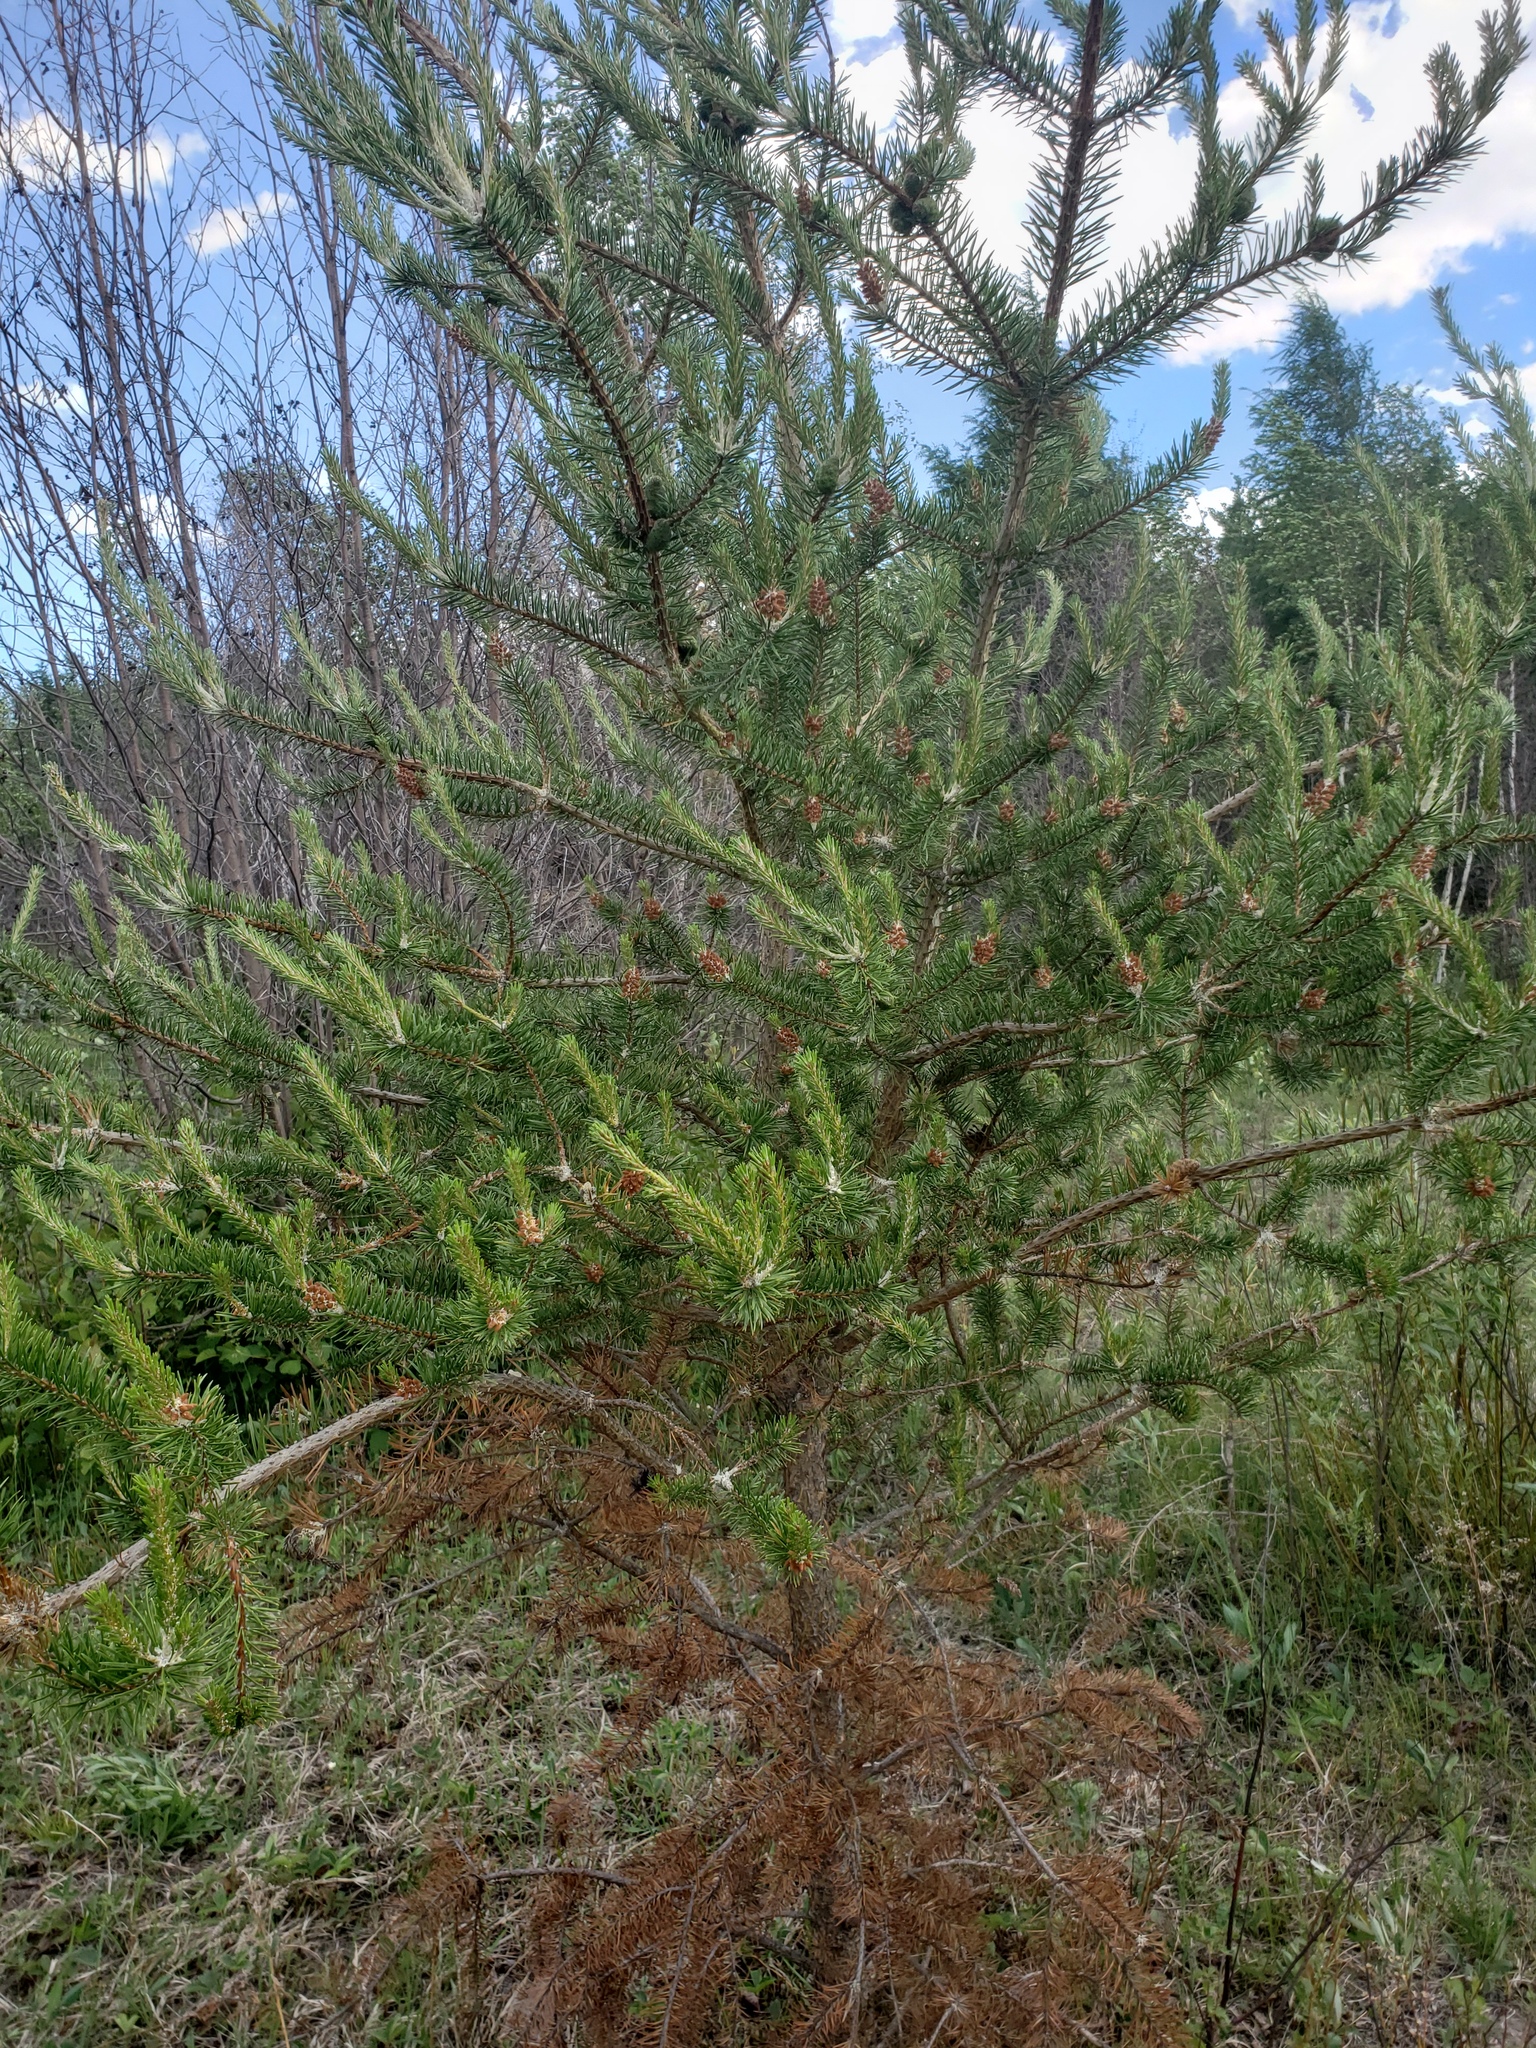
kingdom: Plantae
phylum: Tracheophyta
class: Pinopsida
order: Pinales
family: Pinaceae
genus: Pinus
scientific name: Pinus banksiana
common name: Jack pine
